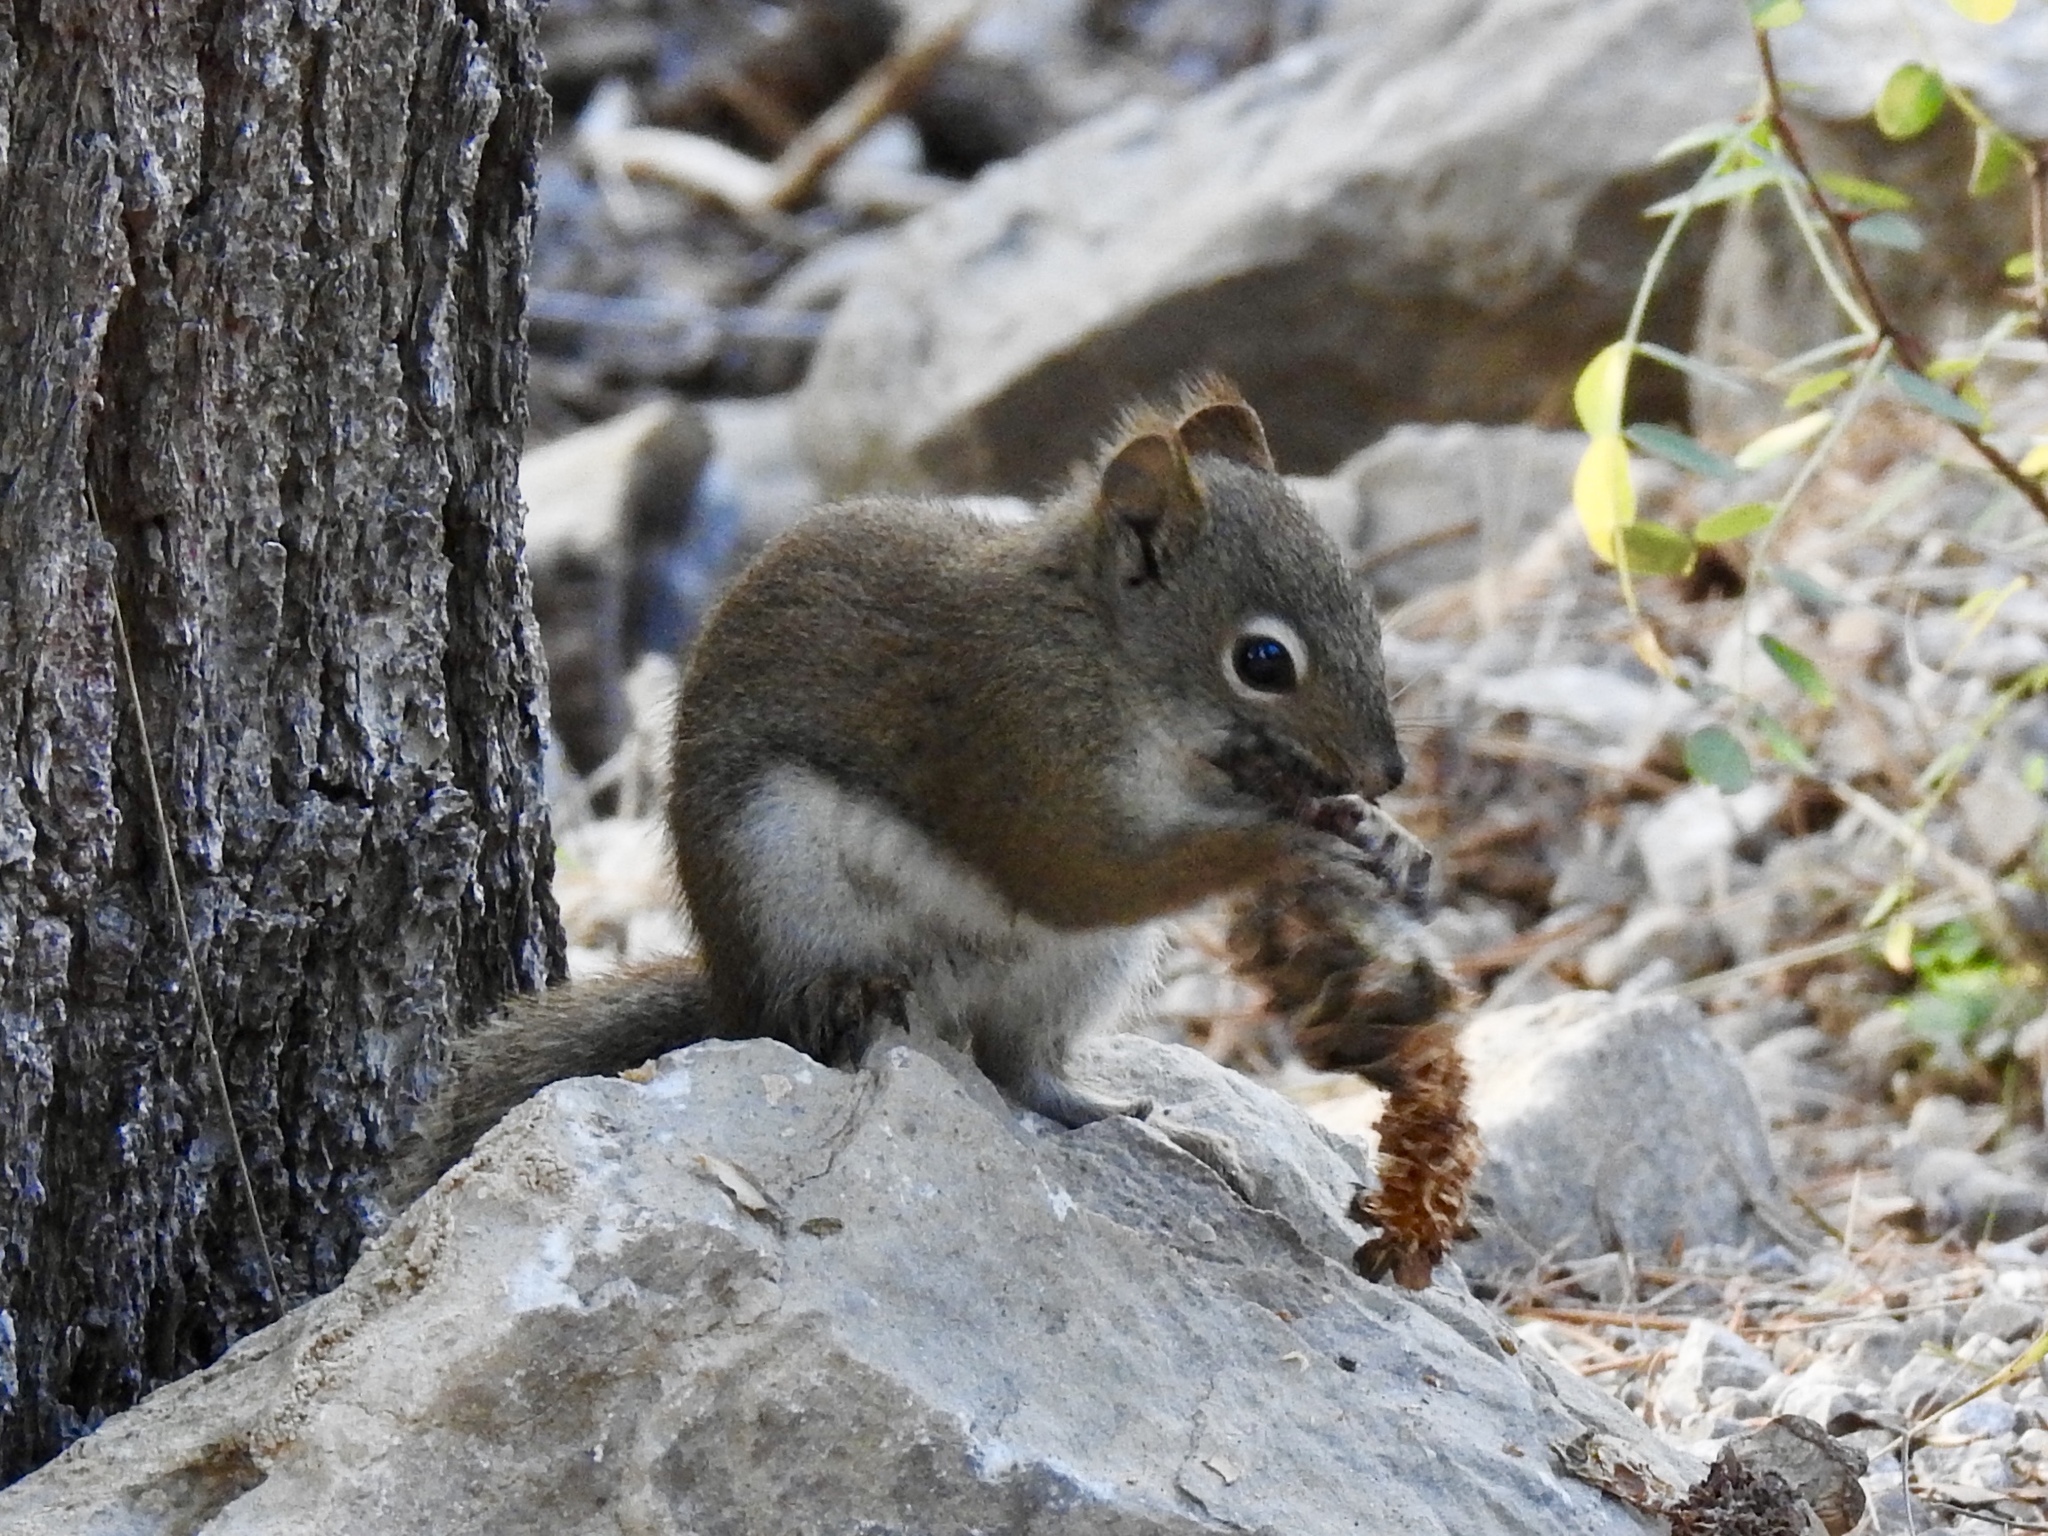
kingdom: Animalia
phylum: Chordata
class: Mammalia
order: Rodentia
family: Sciuridae
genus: Tamiasciurus
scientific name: Tamiasciurus hudsonicus
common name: Red squirrel
